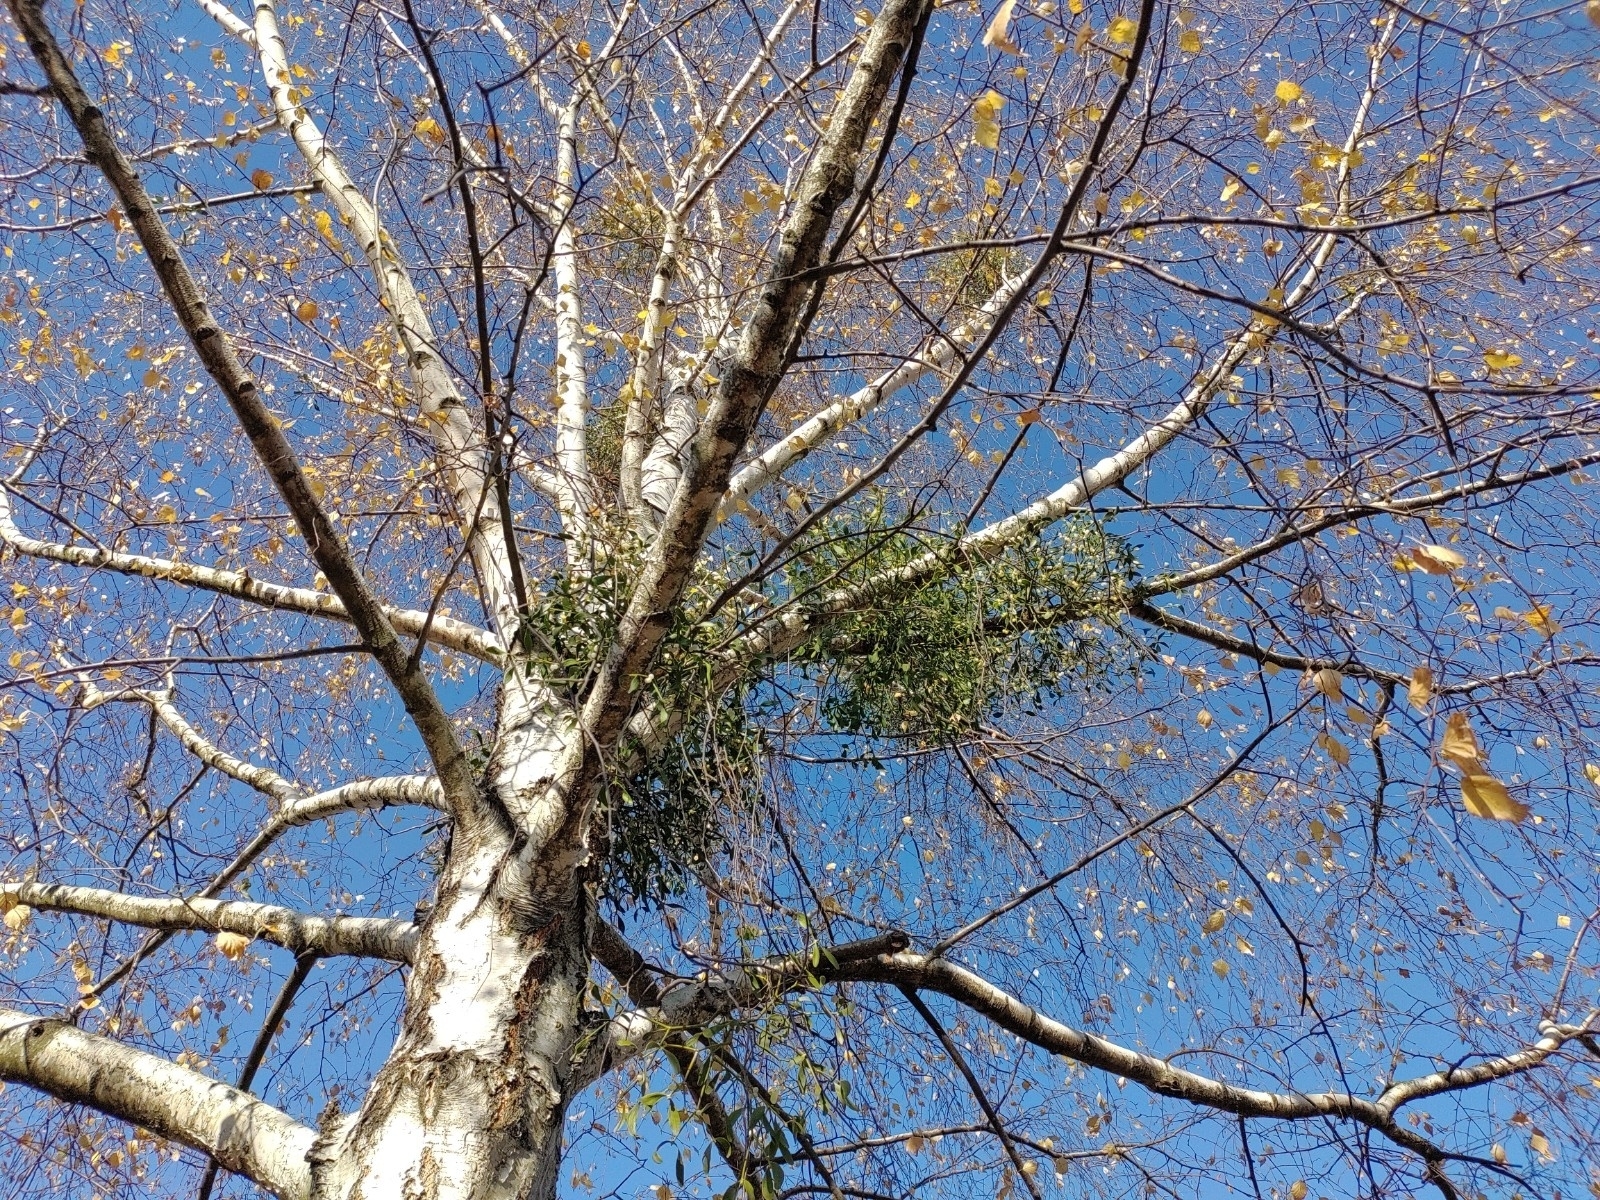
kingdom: Plantae
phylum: Tracheophyta
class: Magnoliopsida
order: Santalales
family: Viscaceae
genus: Viscum
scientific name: Viscum album
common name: Mistletoe
